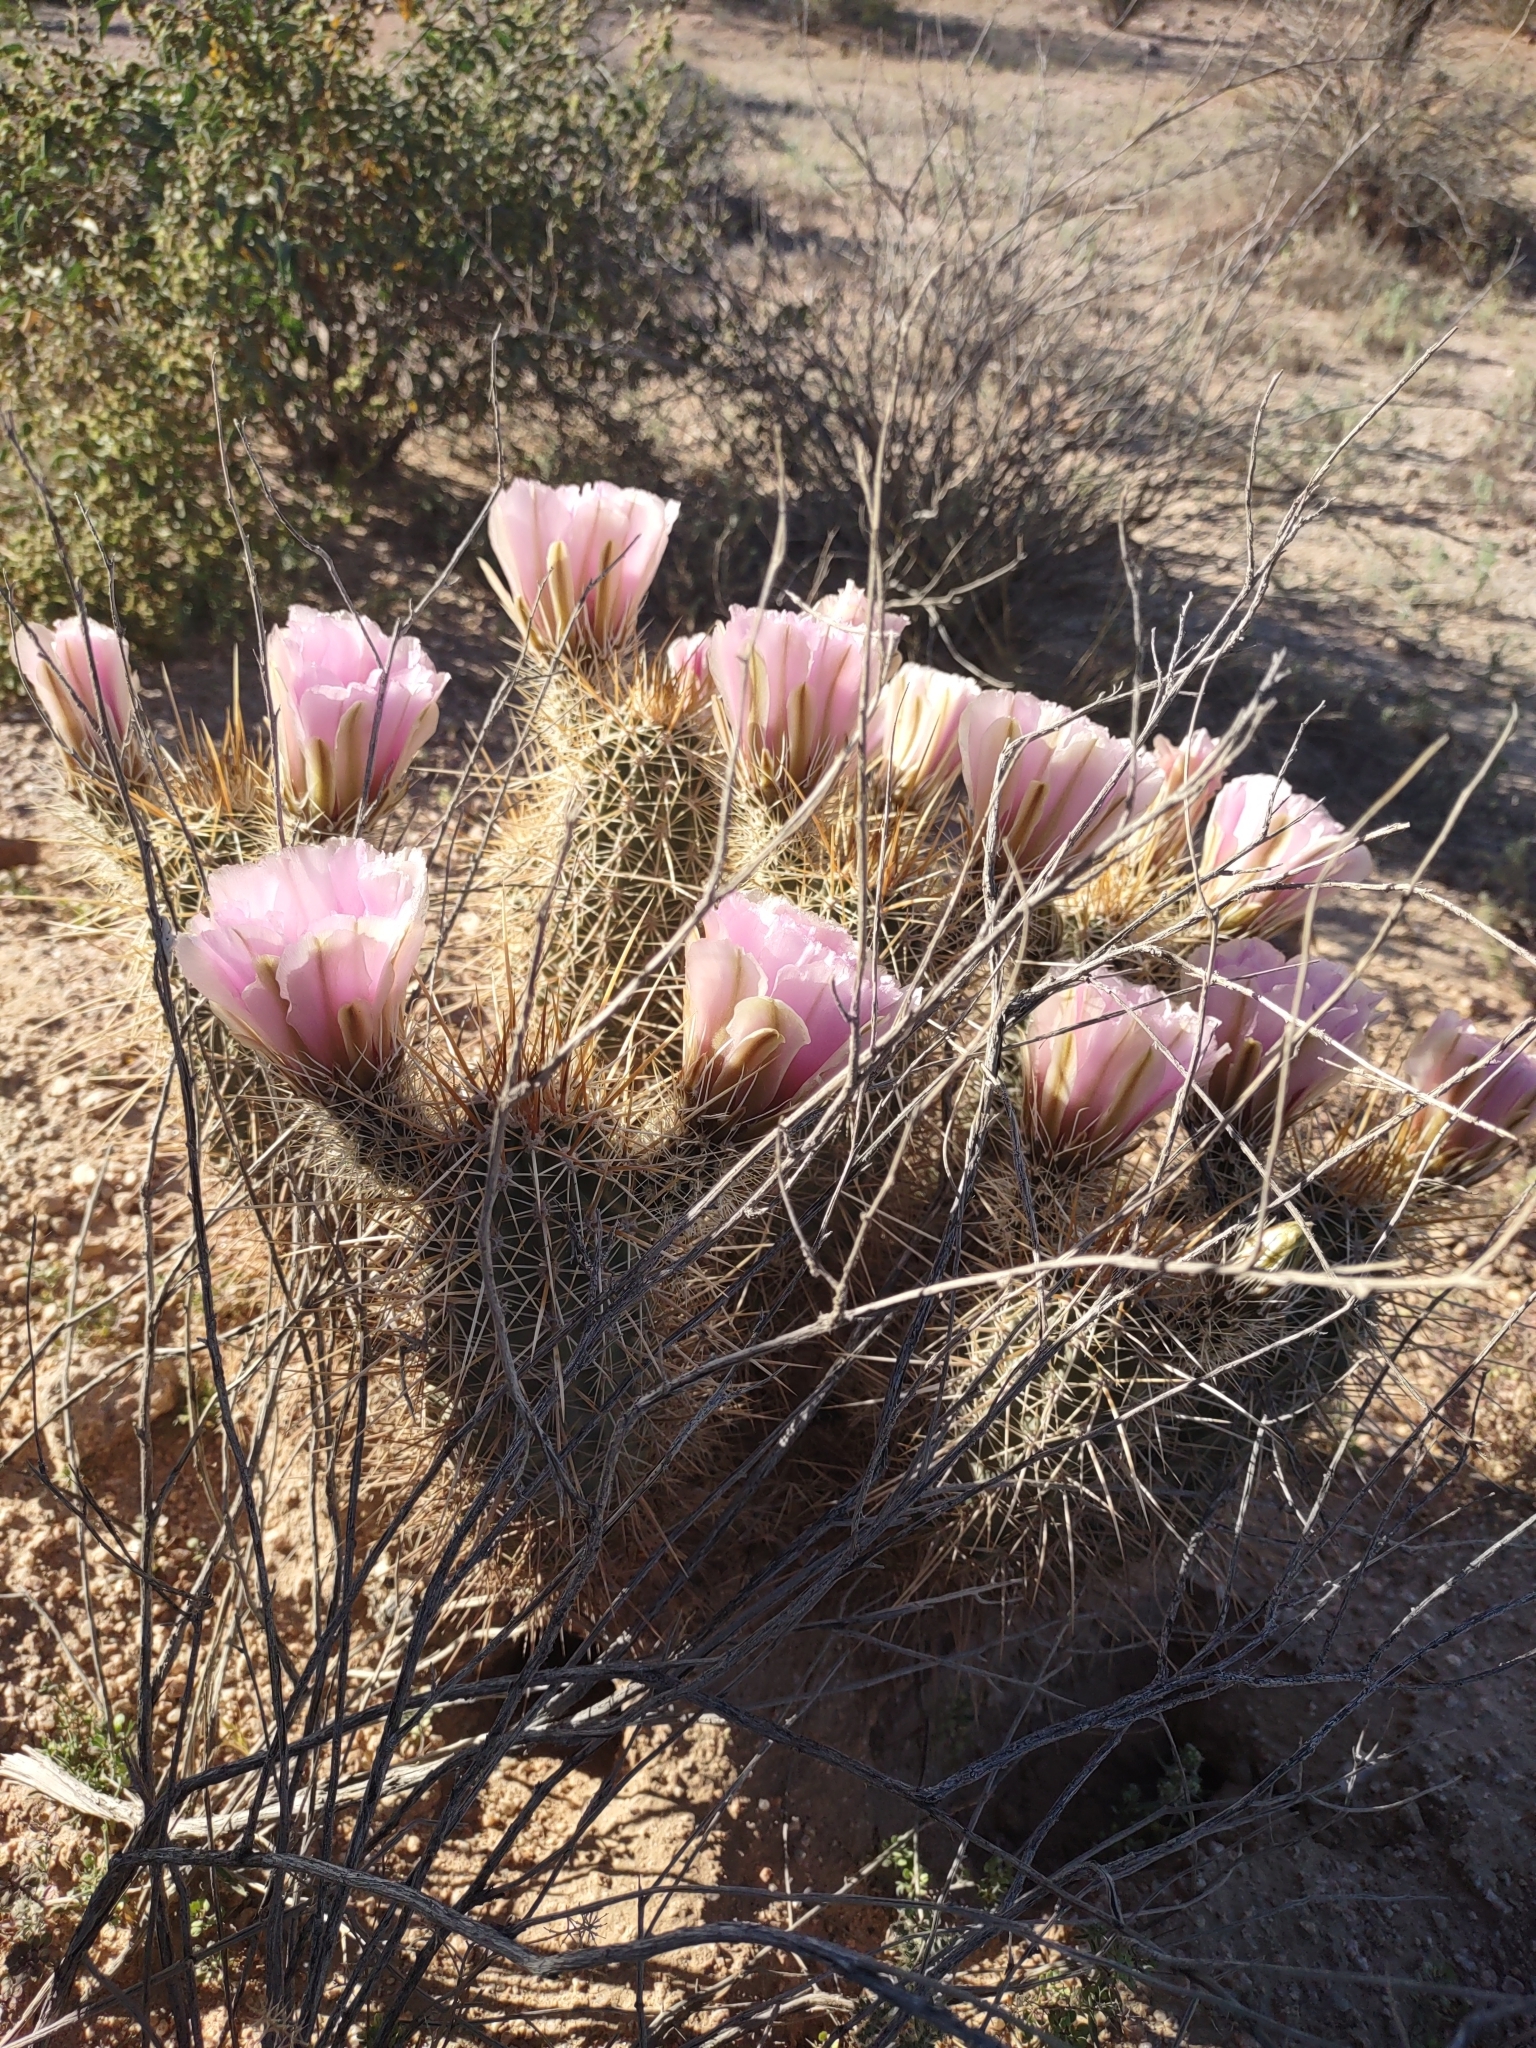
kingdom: Plantae
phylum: Tracheophyta
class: Magnoliopsida
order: Caryophyllales
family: Cactaceae
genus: Echinocereus
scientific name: Echinocereus fasciculatus
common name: Bundle hedgehog
